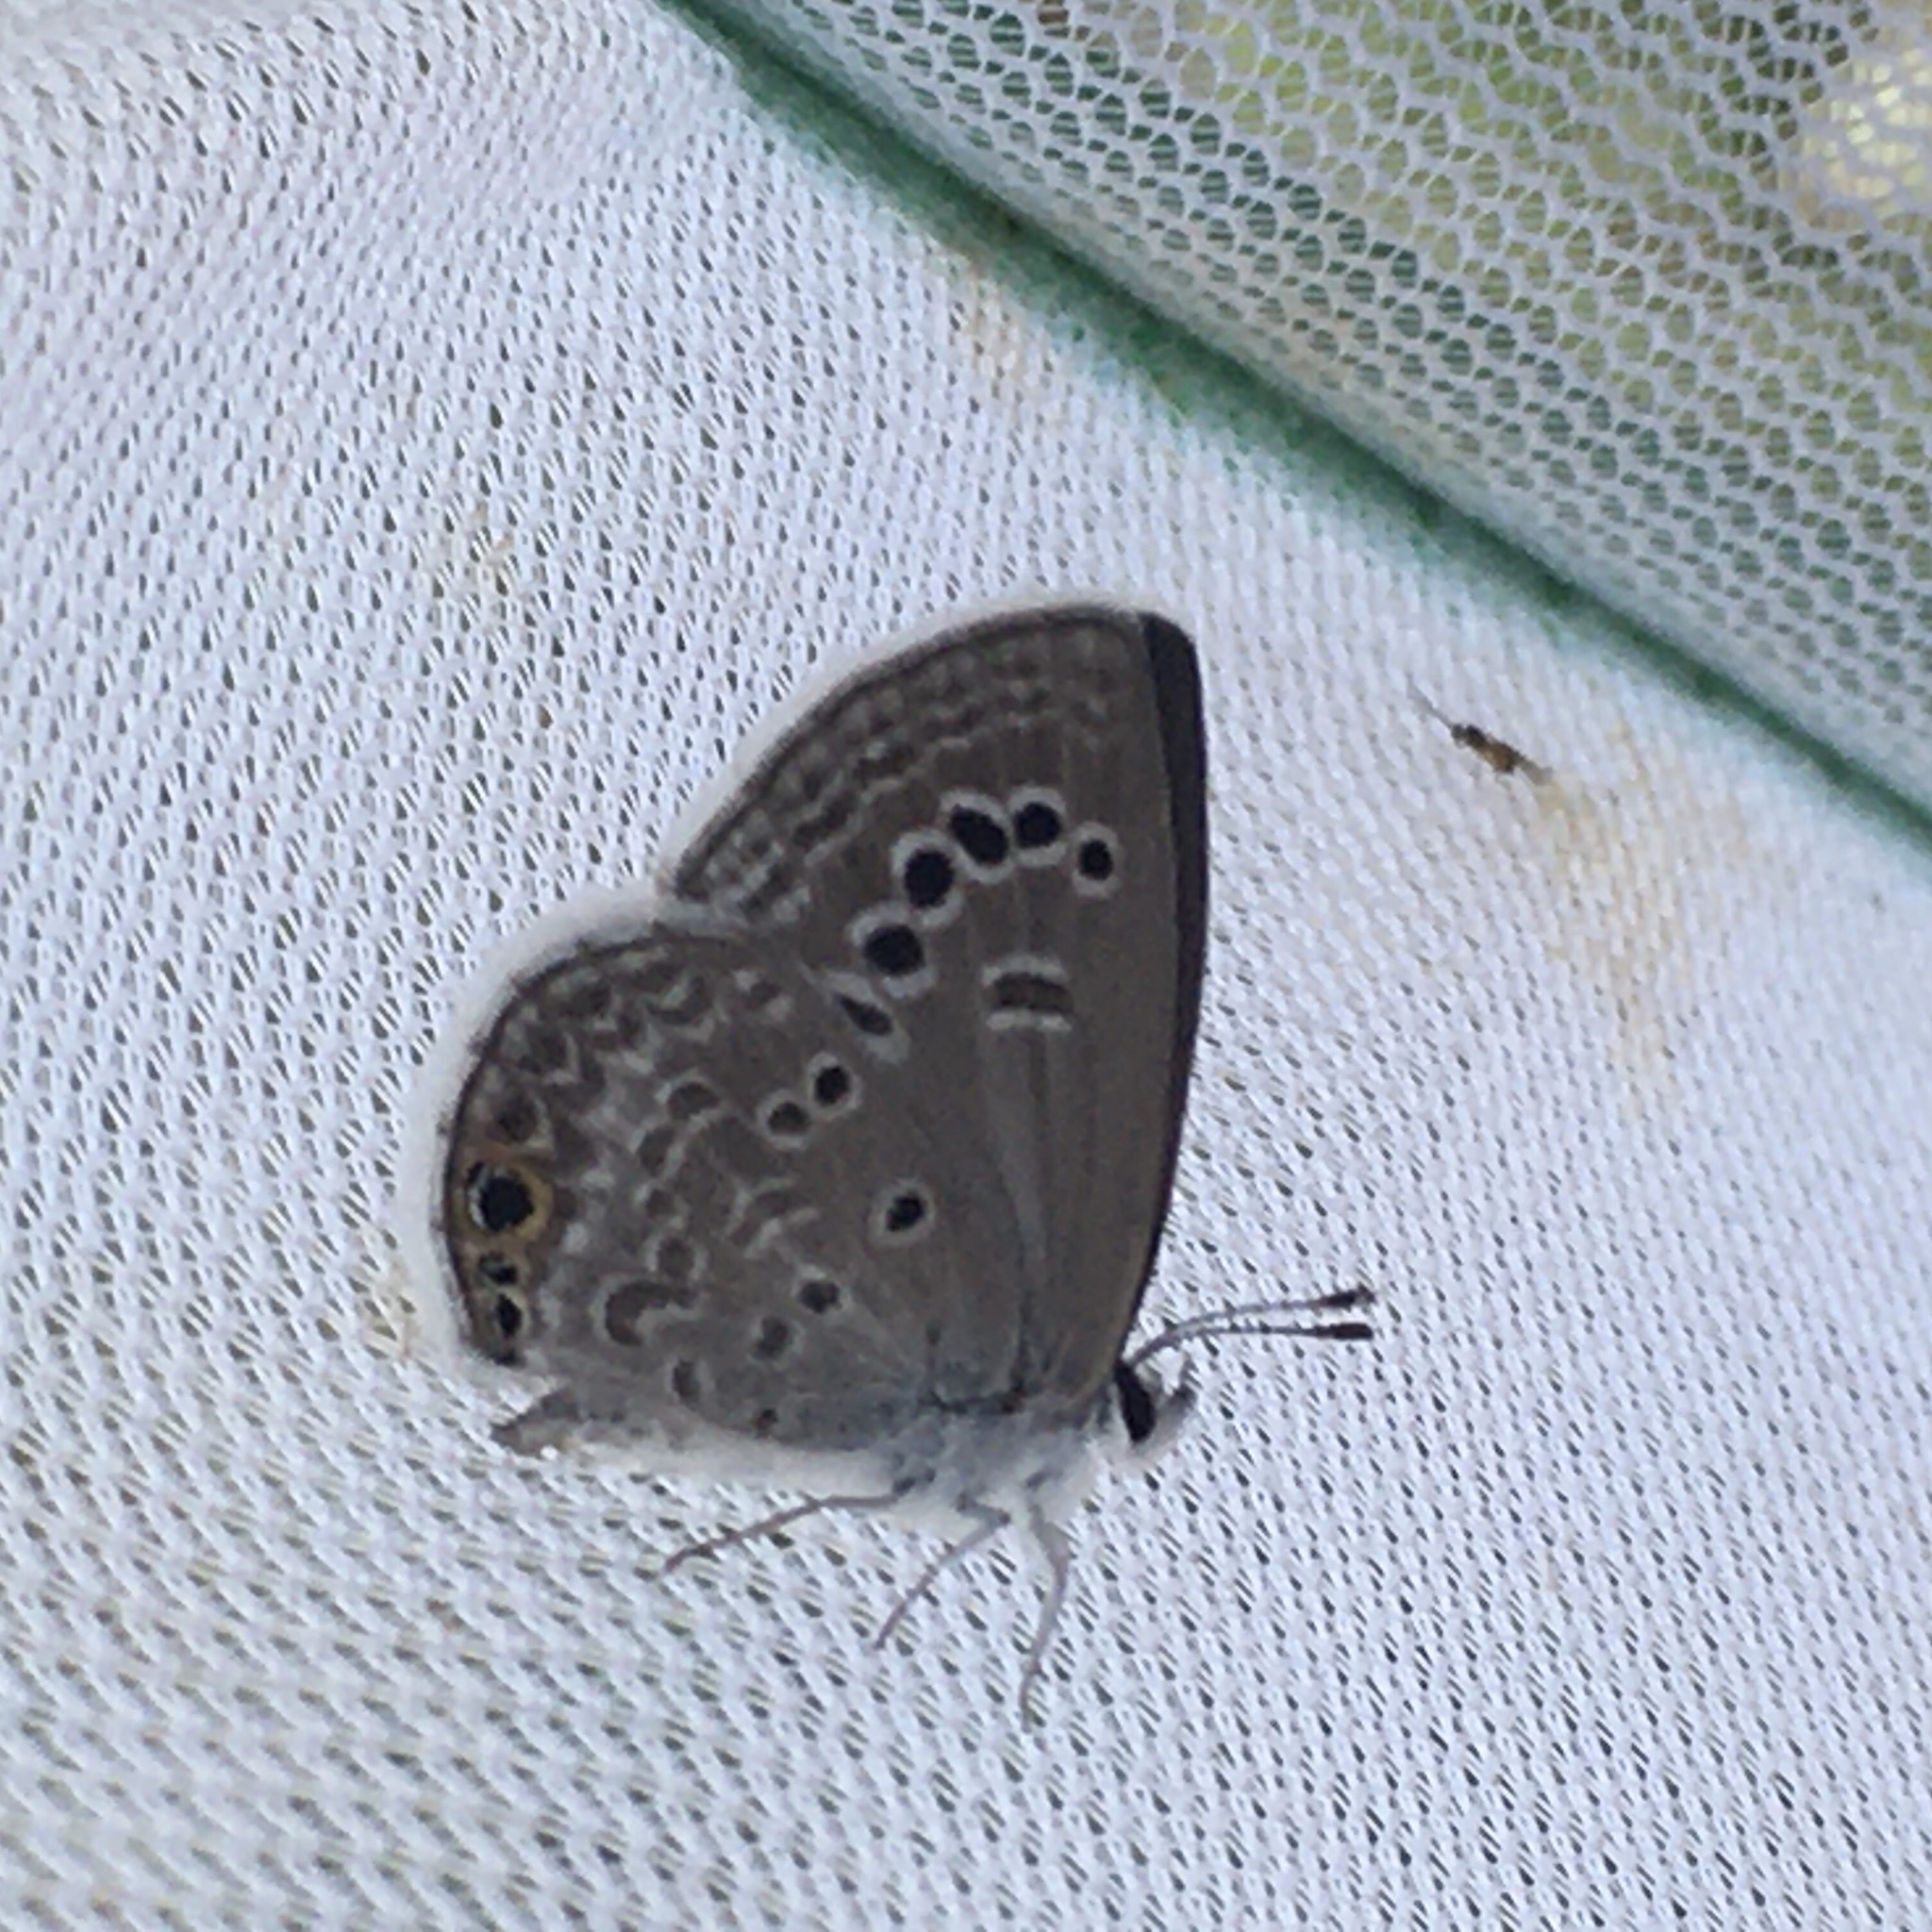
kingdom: Animalia
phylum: Arthropoda
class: Insecta
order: Lepidoptera
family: Lycaenidae
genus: Echinargus
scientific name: Echinargus isola
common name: Reakirt's blue
